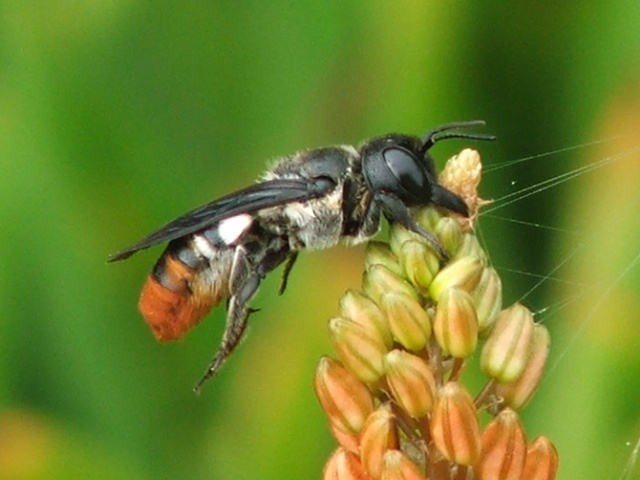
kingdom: Animalia
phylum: Arthropoda
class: Insecta
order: Hymenoptera
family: Megachilidae
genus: Megachile
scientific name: Megachile chrysorrhoea
